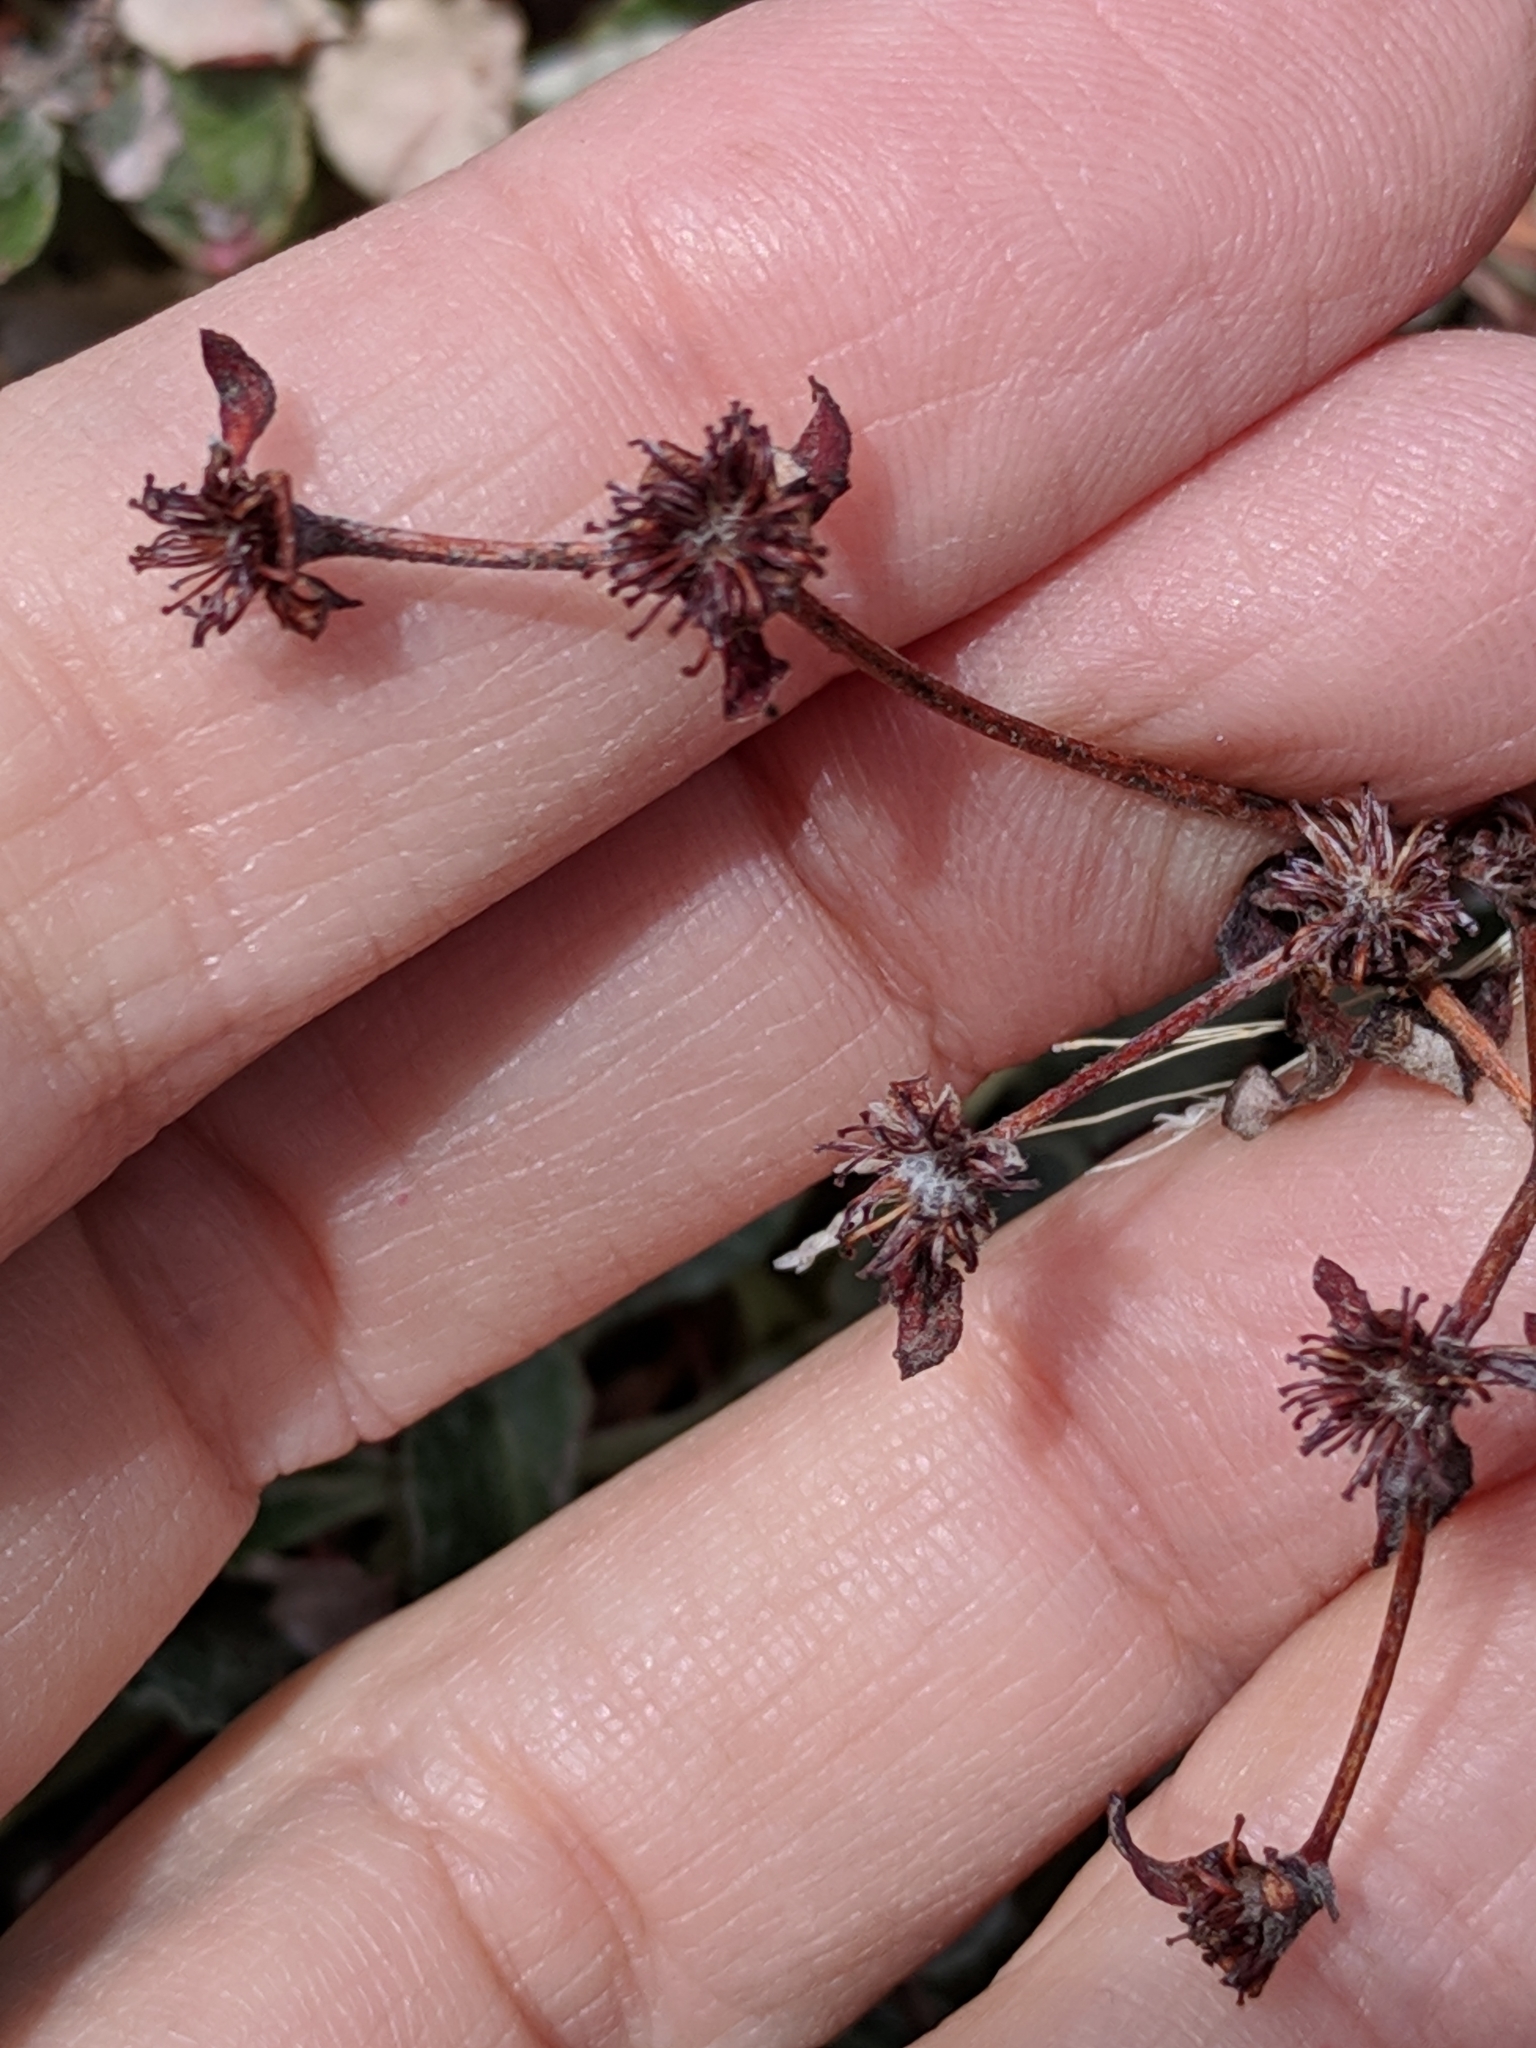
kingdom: Plantae
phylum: Tracheophyta
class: Magnoliopsida
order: Caryophyllales
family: Polygonaceae
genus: Eriogonum
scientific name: Eriogonum jamesii
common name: Antelope-sage
